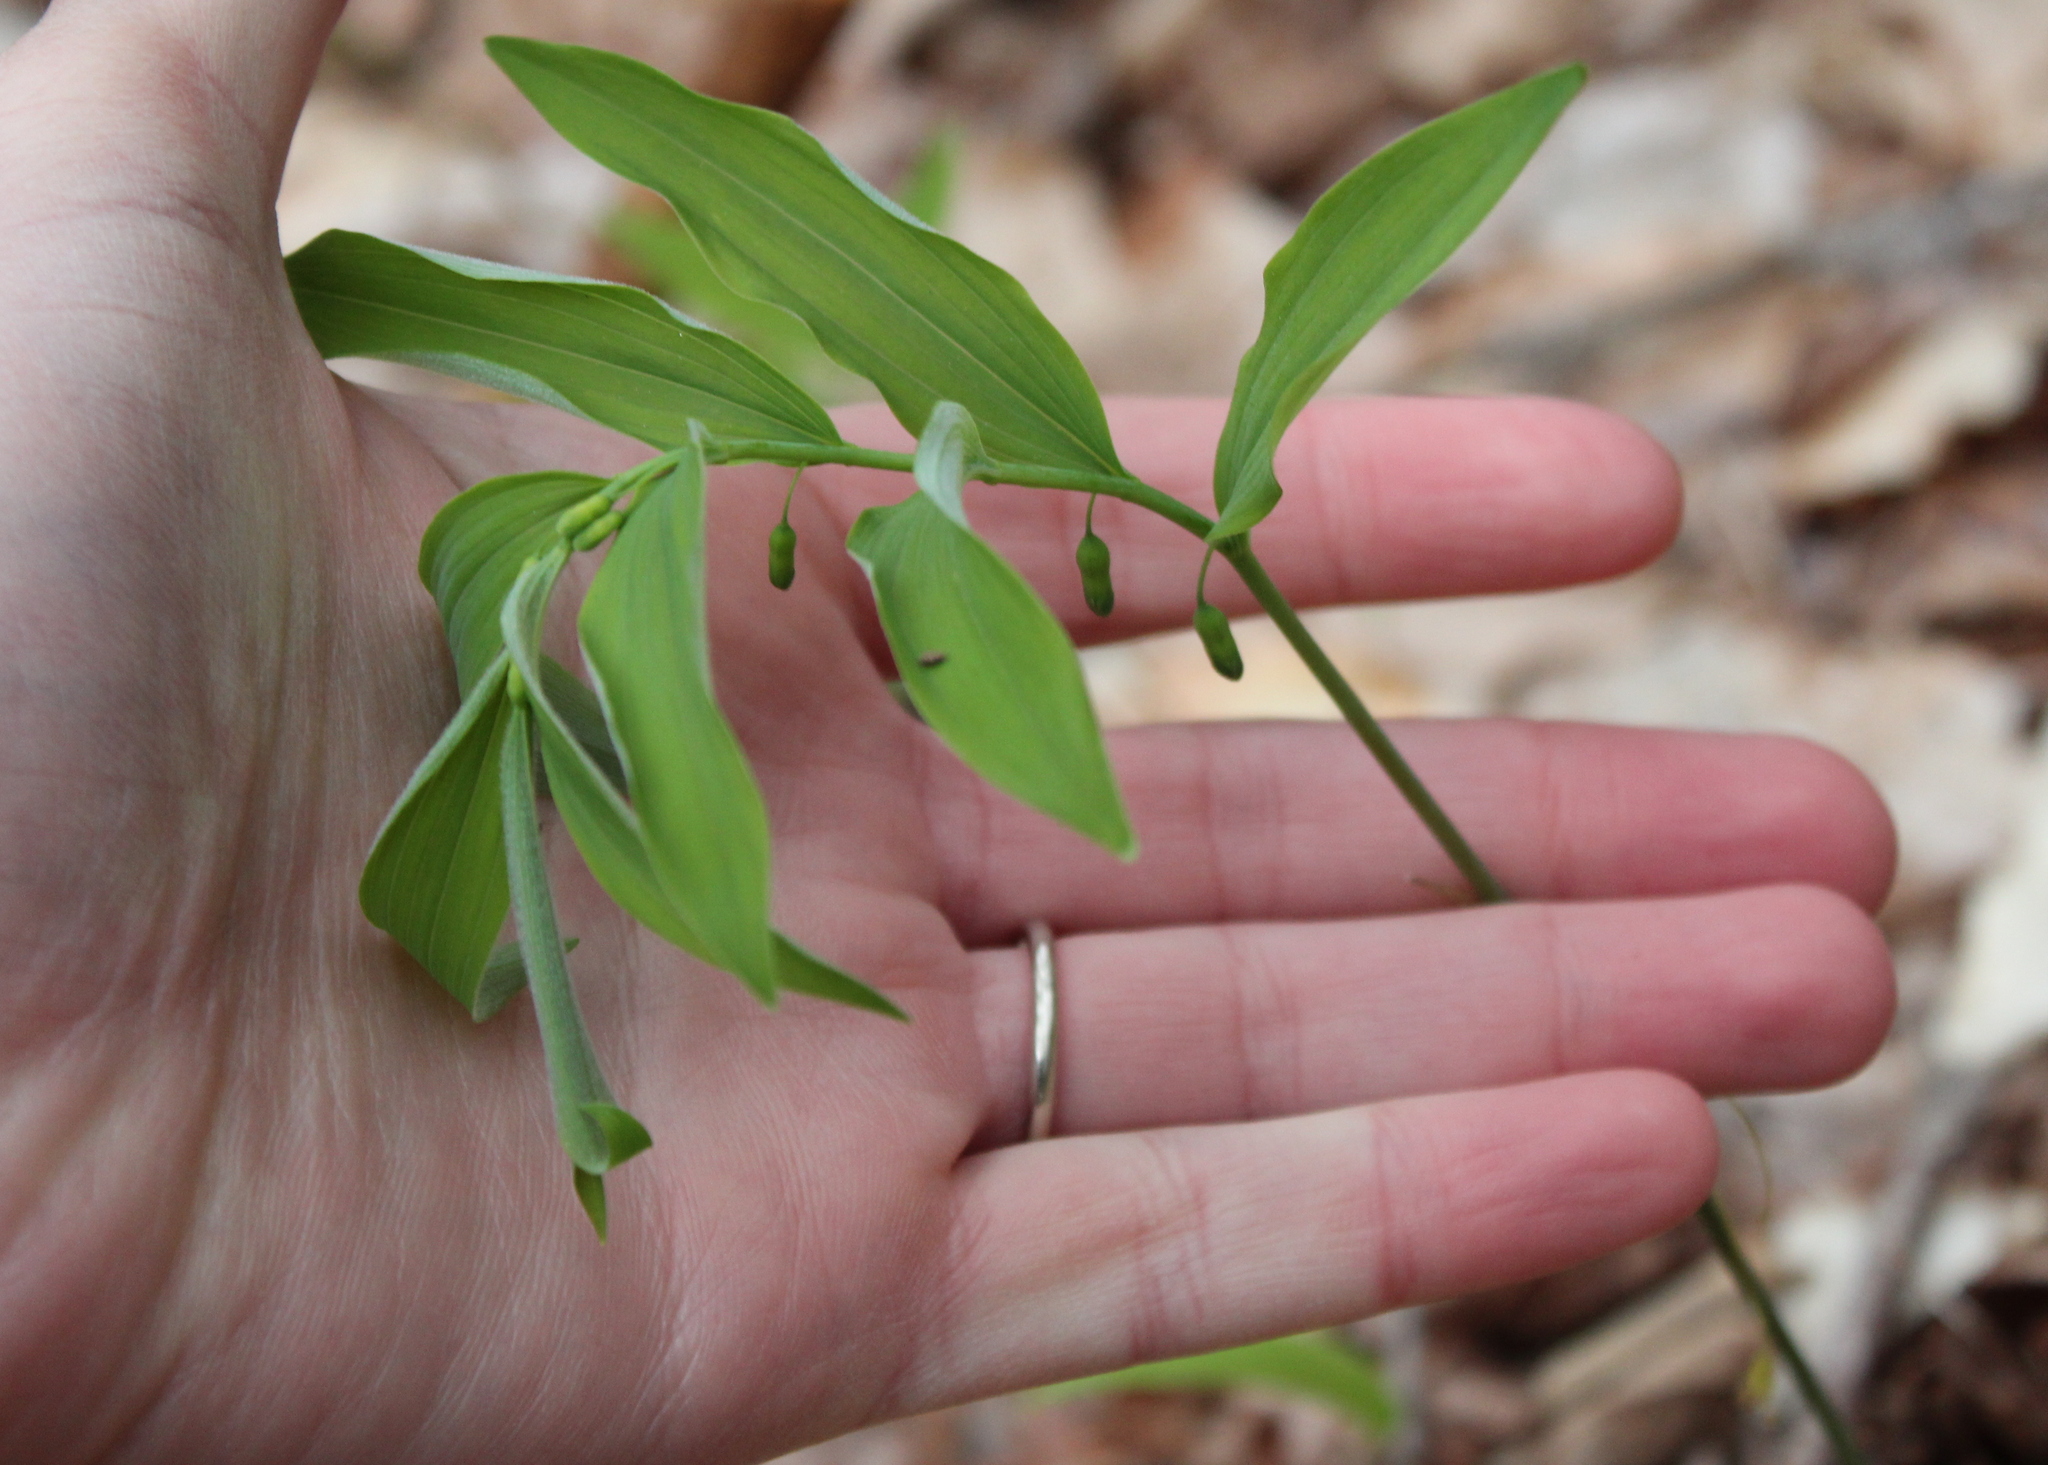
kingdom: Plantae
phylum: Tracheophyta
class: Liliopsida
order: Asparagales
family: Asparagaceae
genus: Polygonatum
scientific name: Polygonatum pubescens
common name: Downy solomon's seal
